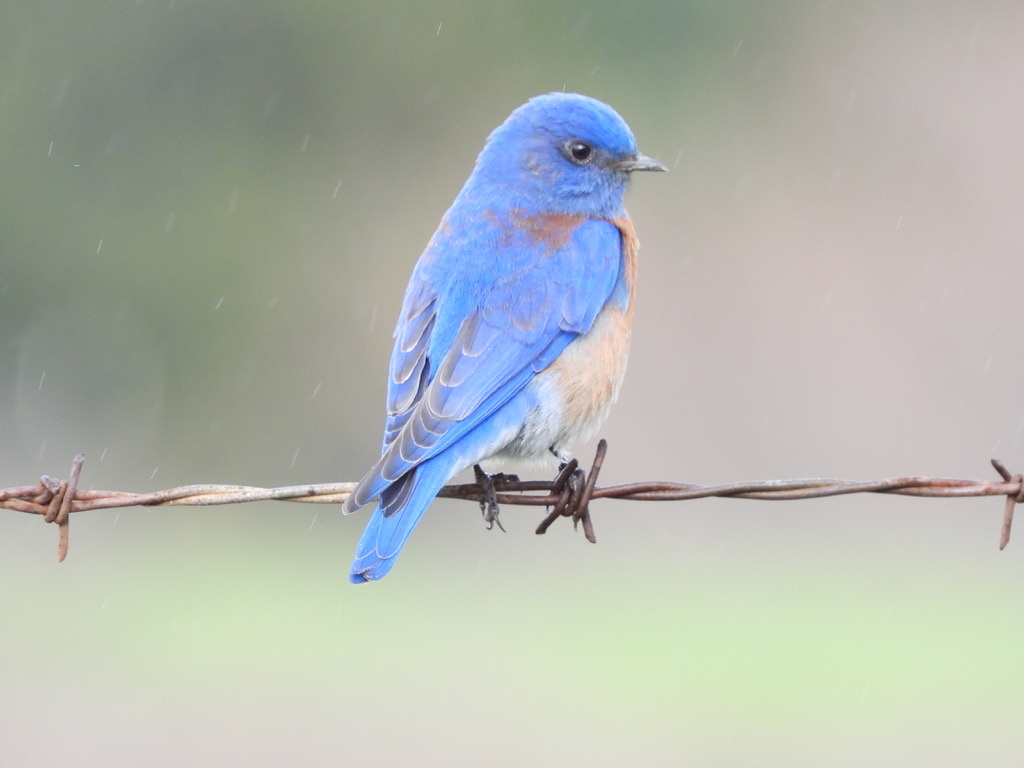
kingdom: Animalia
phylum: Chordata
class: Aves
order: Passeriformes
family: Turdidae
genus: Sialia
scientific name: Sialia mexicana
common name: Western bluebird
